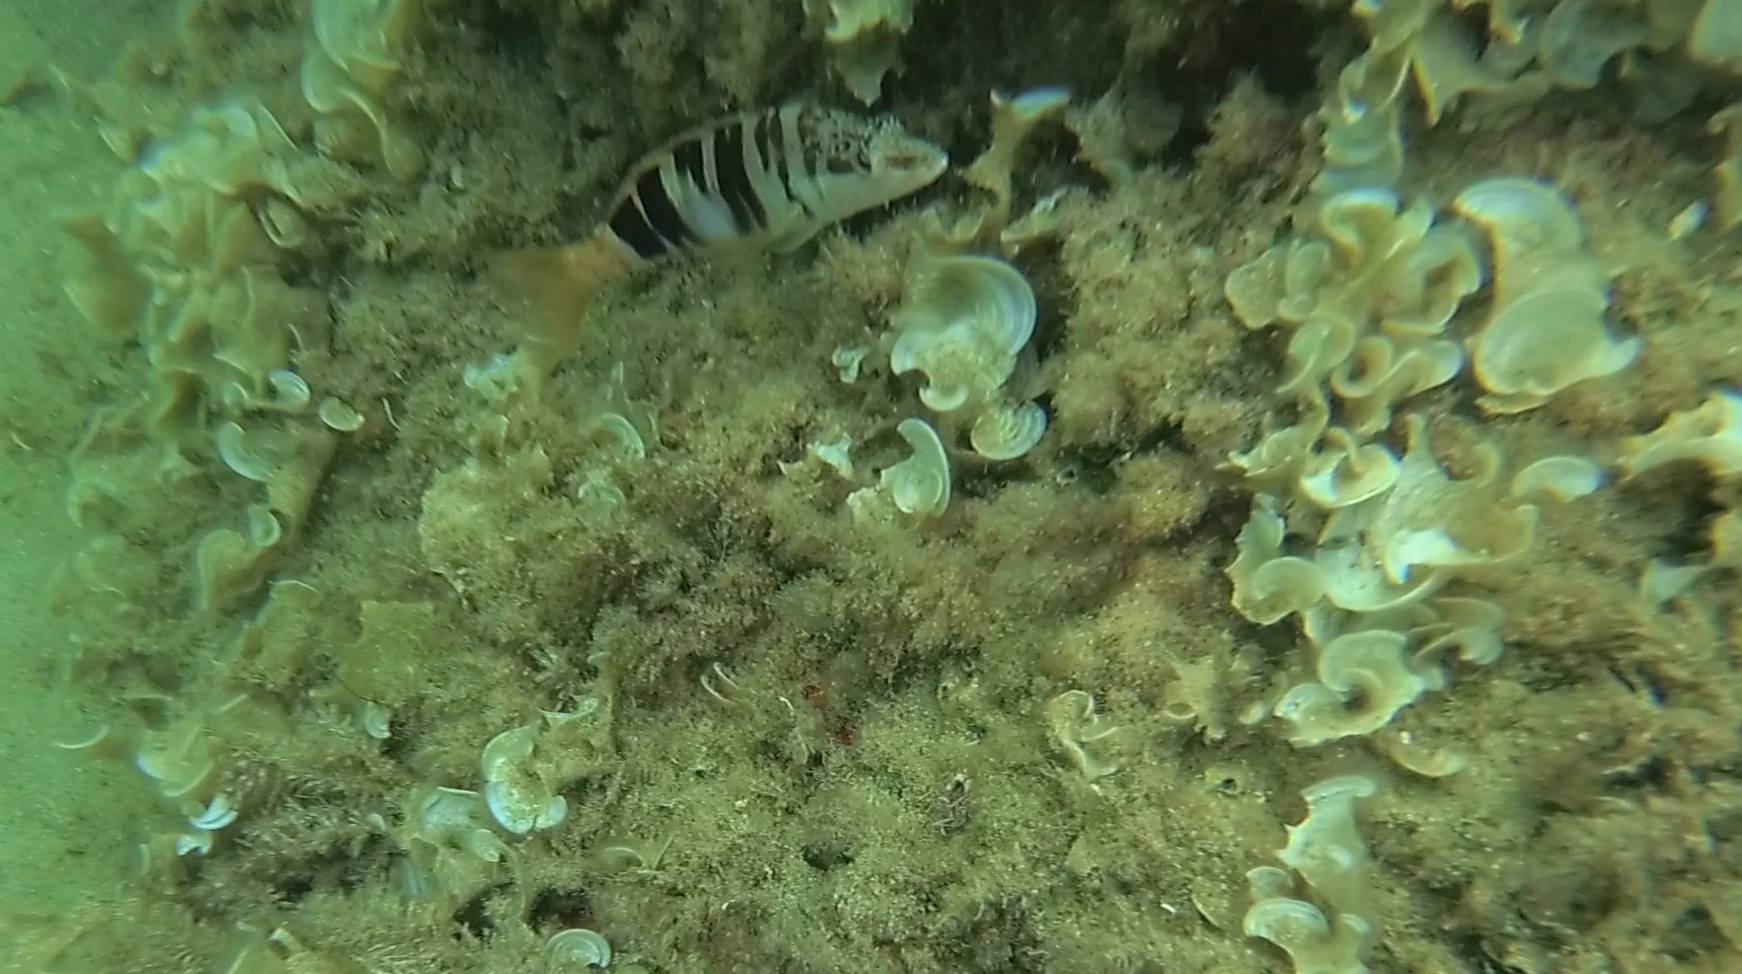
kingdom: Animalia
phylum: Chordata
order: Perciformes
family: Serranidae
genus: Serranus
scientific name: Serranus scriba
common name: Painted comber
